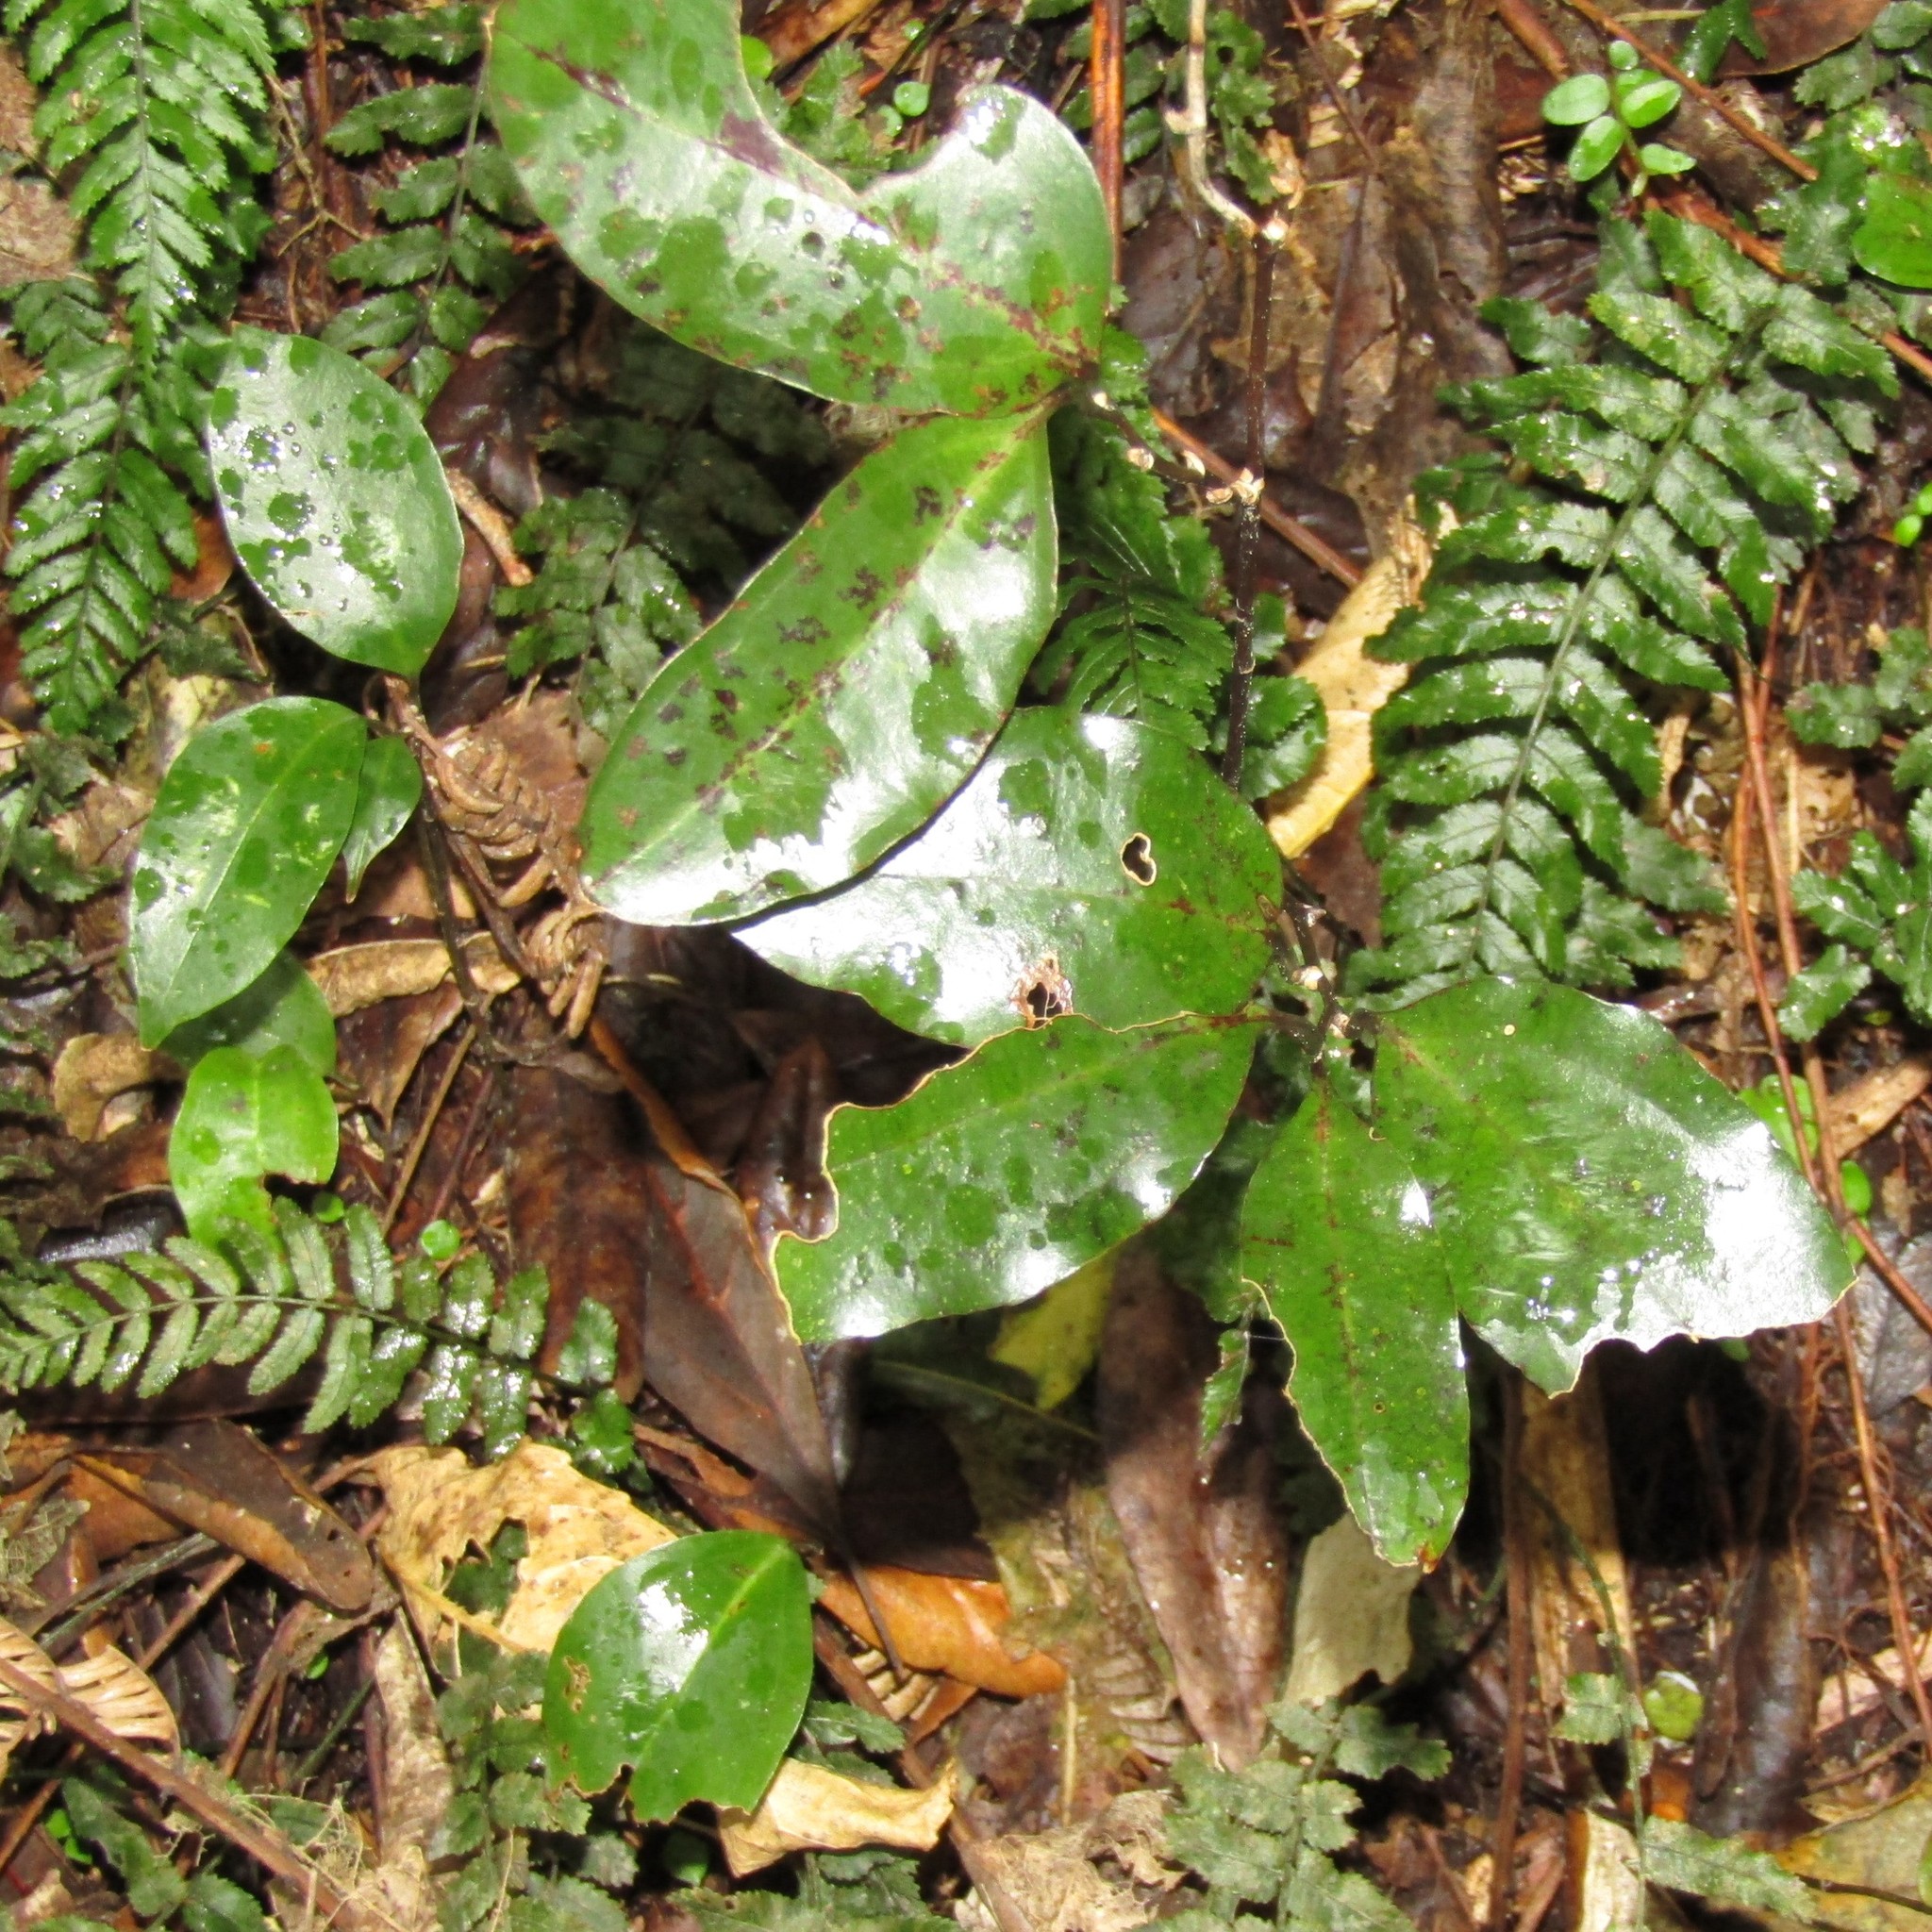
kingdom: Plantae
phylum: Tracheophyta
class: Liliopsida
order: Liliales
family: Ripogonaceae
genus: Ripogonum
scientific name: Ripogonum scandens
